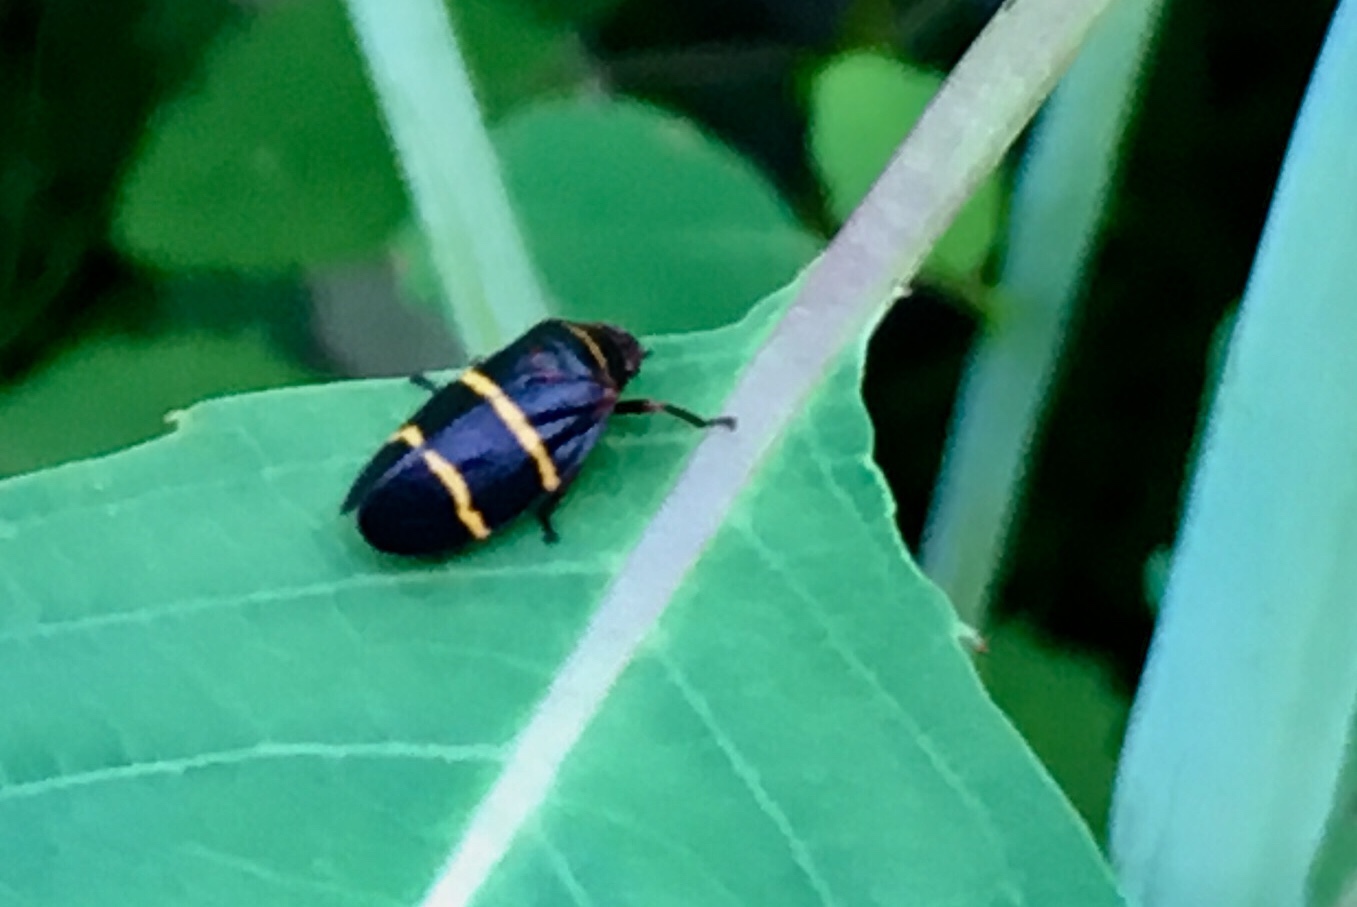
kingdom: Animalia
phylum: Arthropoda
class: Insecta
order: Hemiptera
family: Cercopidae
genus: Prosapia
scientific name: Prosapia bicincta
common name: Twolined spittlebug
